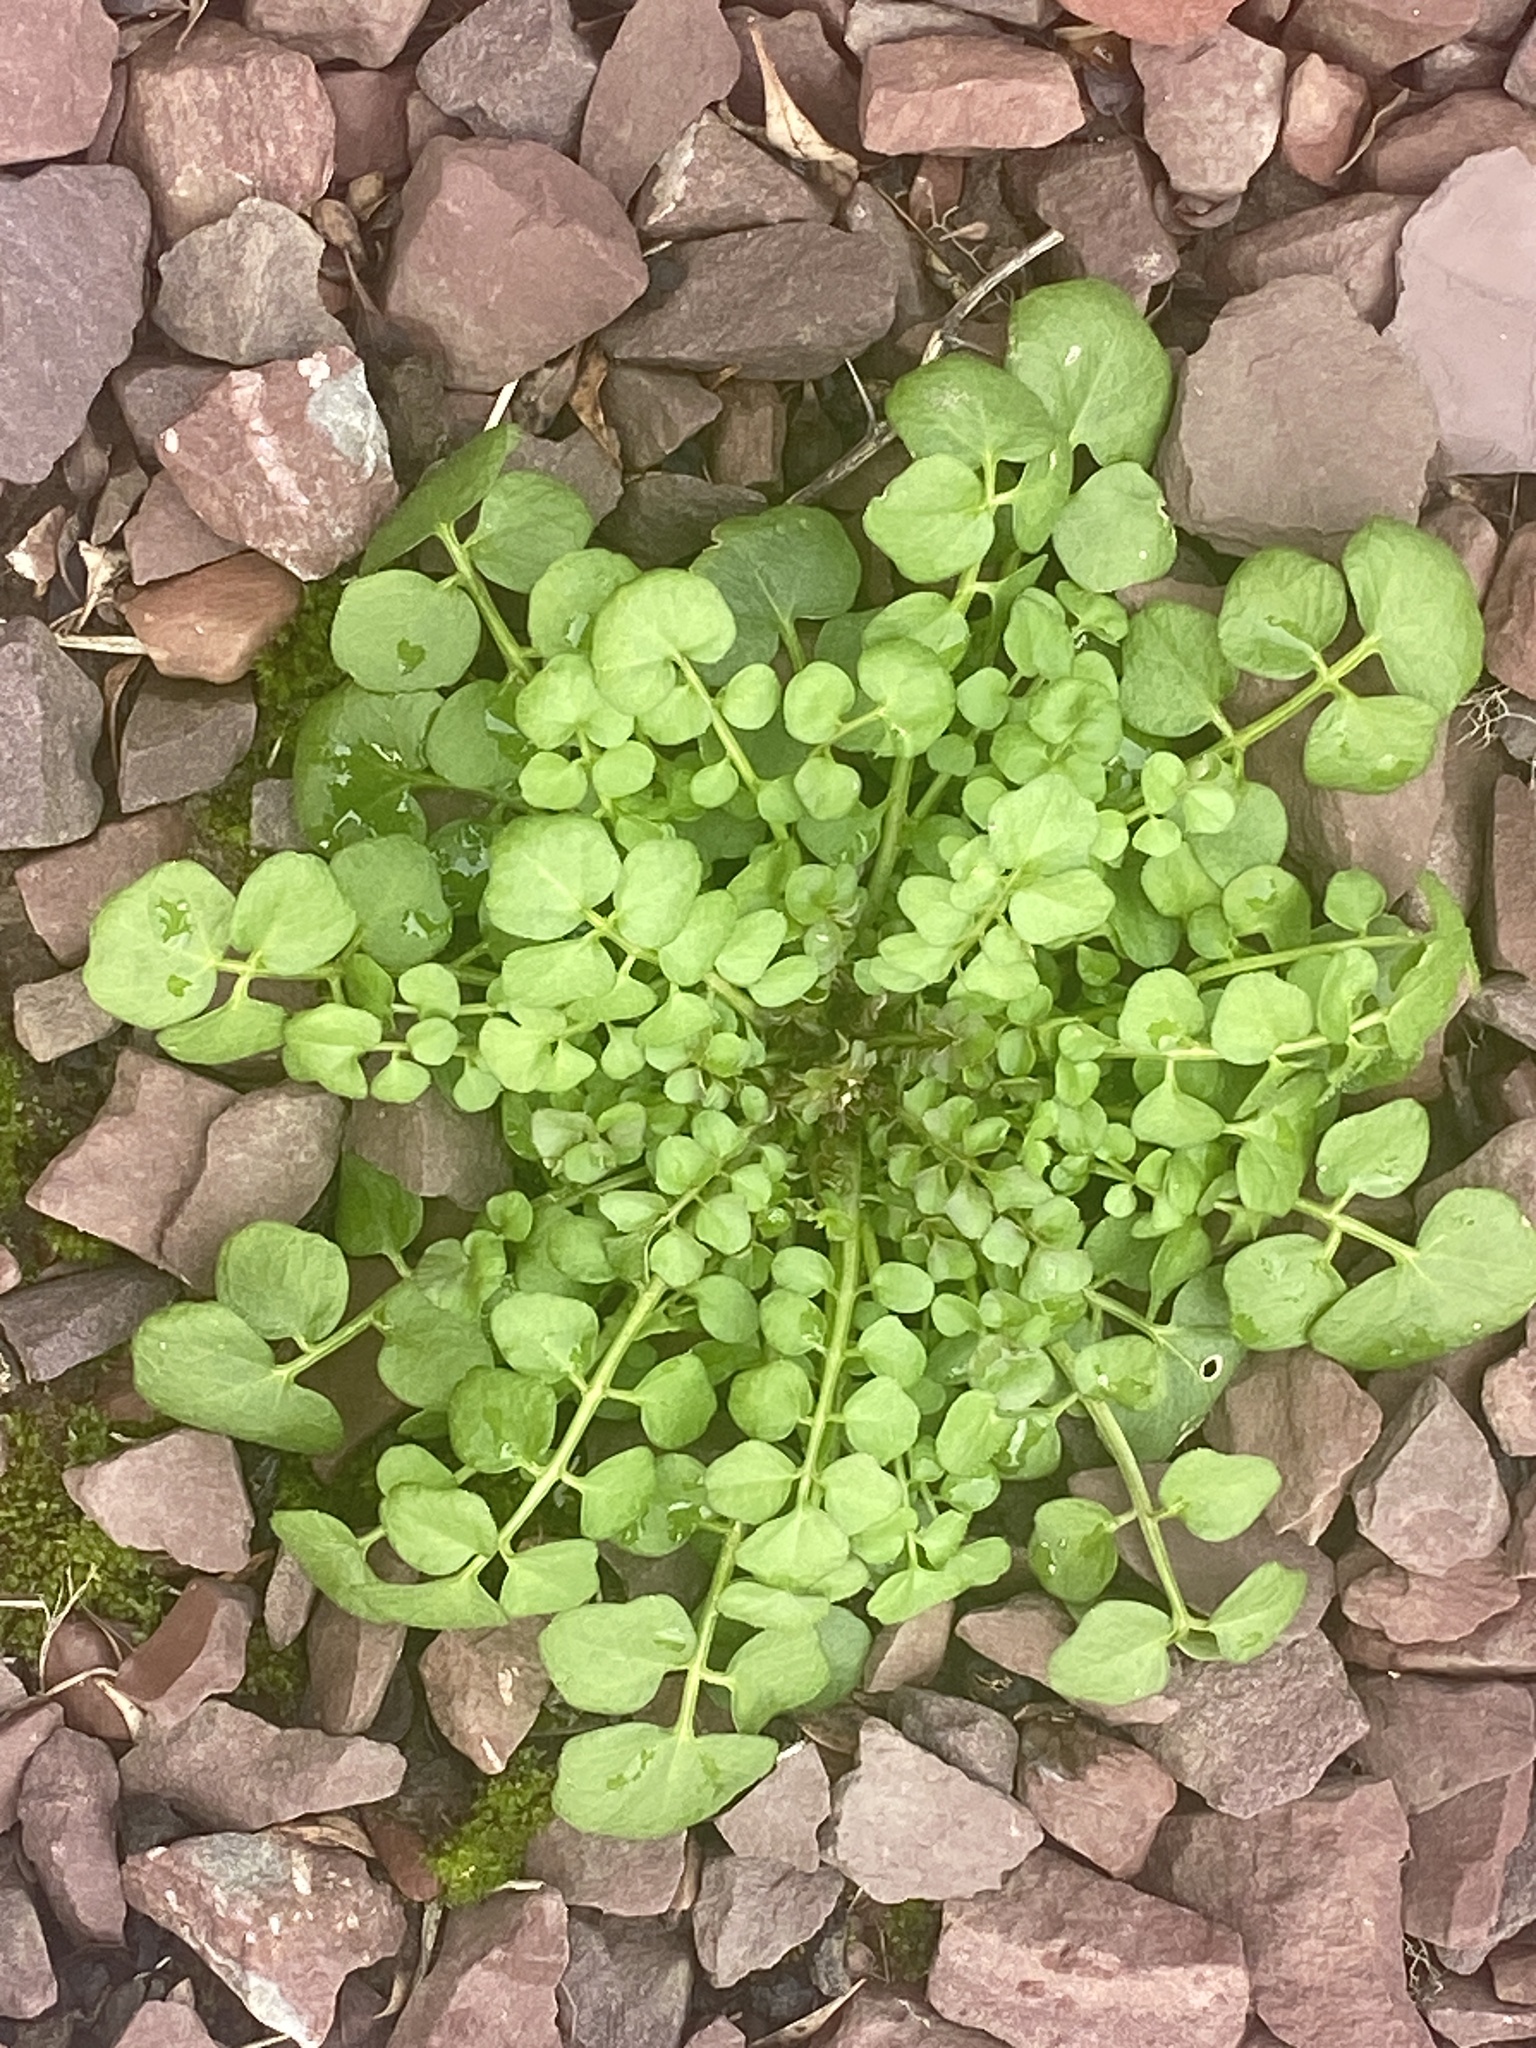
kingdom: Plantae
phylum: Tracheophyta
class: Magnoliopsida
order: Brassicales
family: Brassicaceae
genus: Cardamine
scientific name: Cardamine hirsuta
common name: Hairy bittercress
